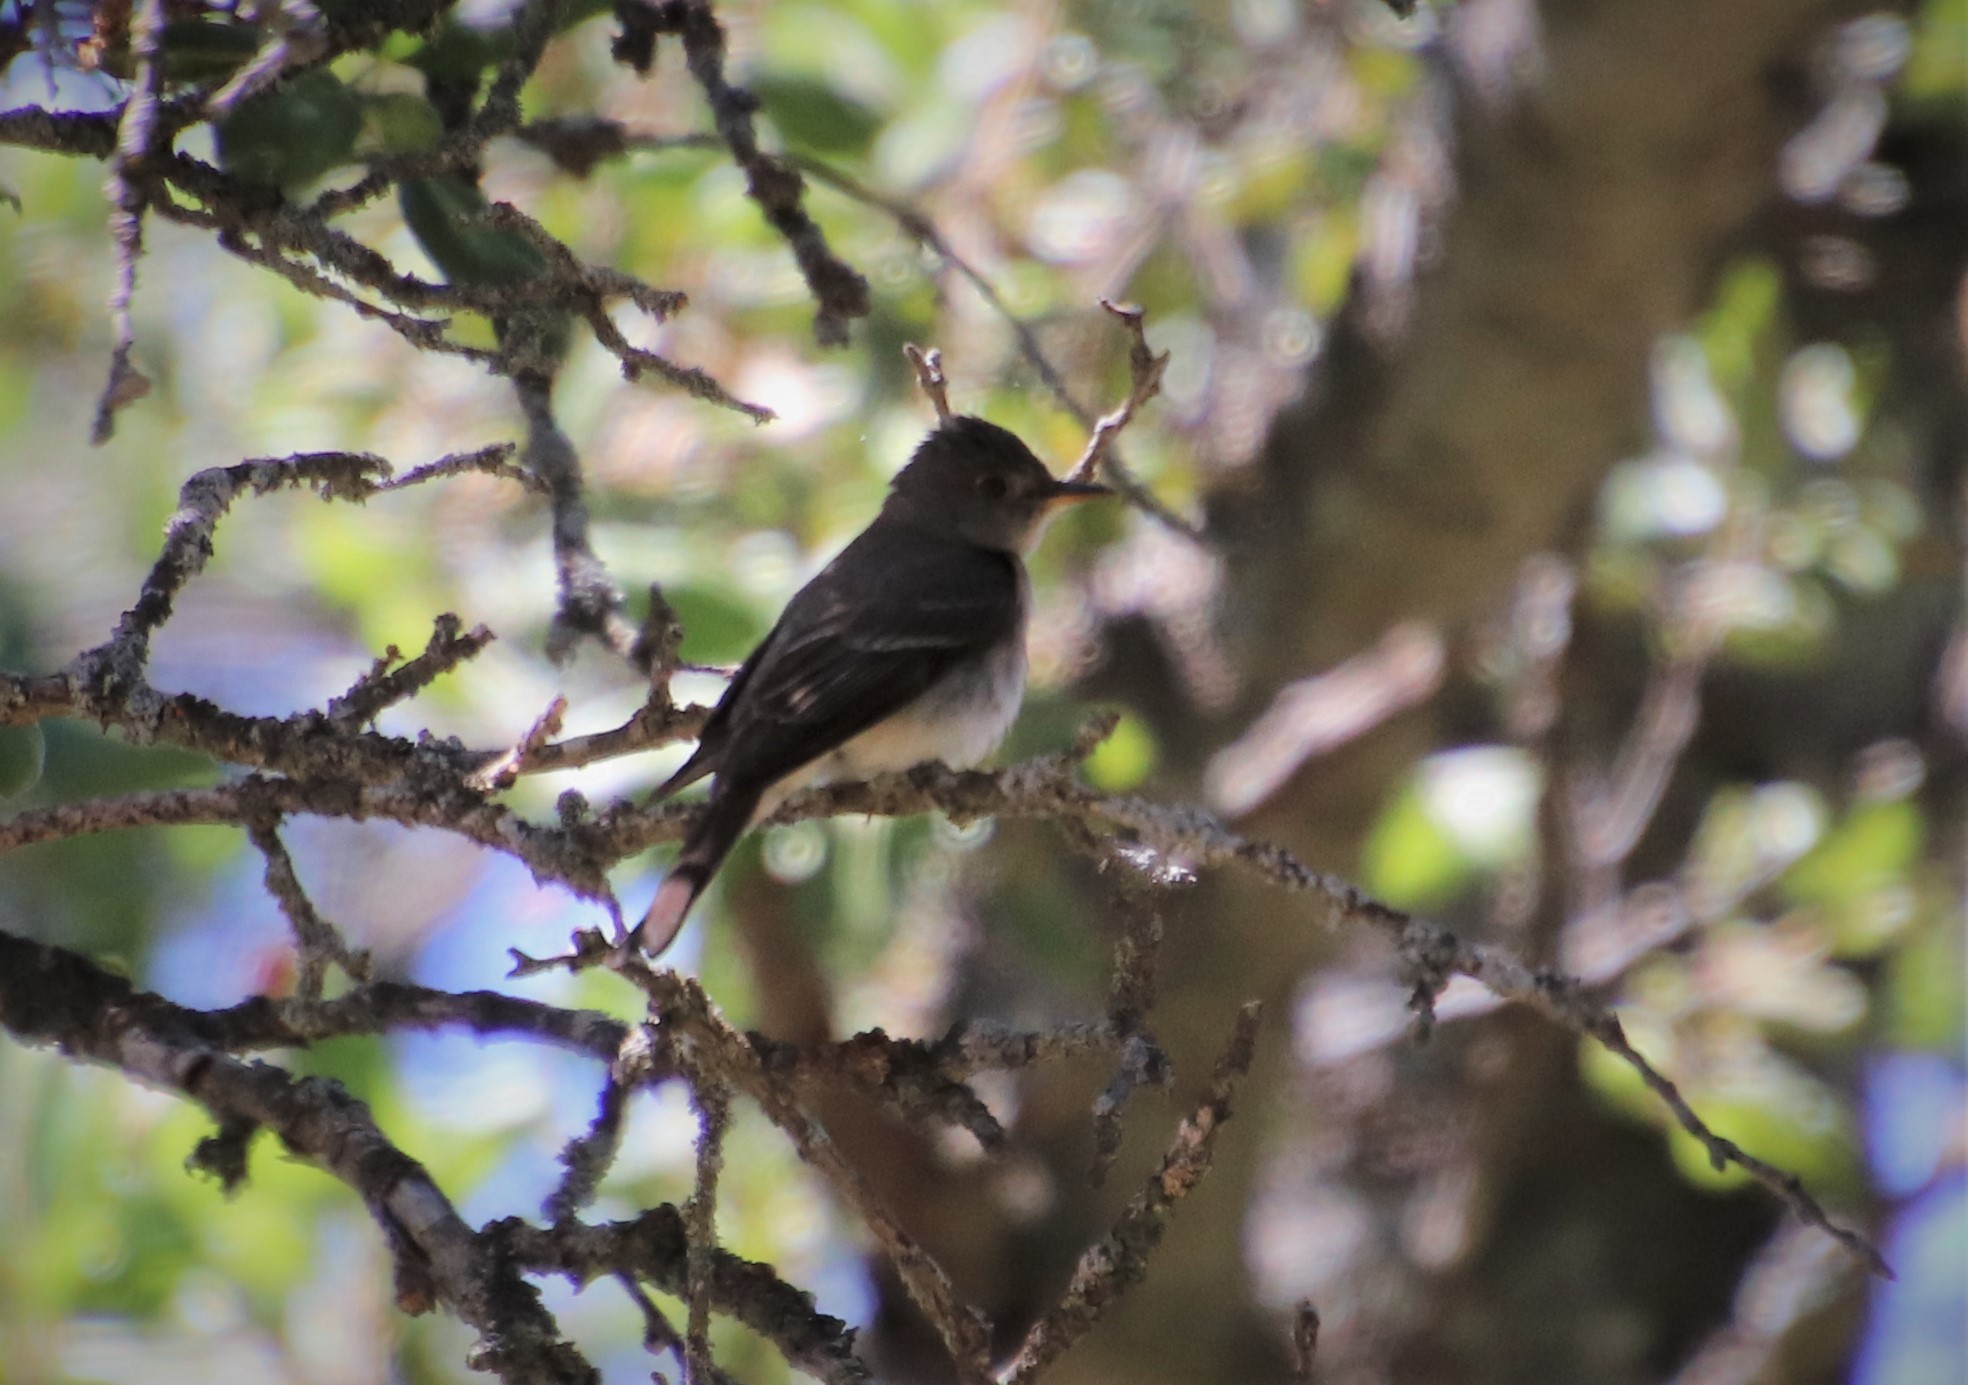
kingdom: Animalia
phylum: Chordata
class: Aves
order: Passeriformes
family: Tyrannidae
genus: Contopus
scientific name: Contopus sordidulus
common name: Western wood-pewee
